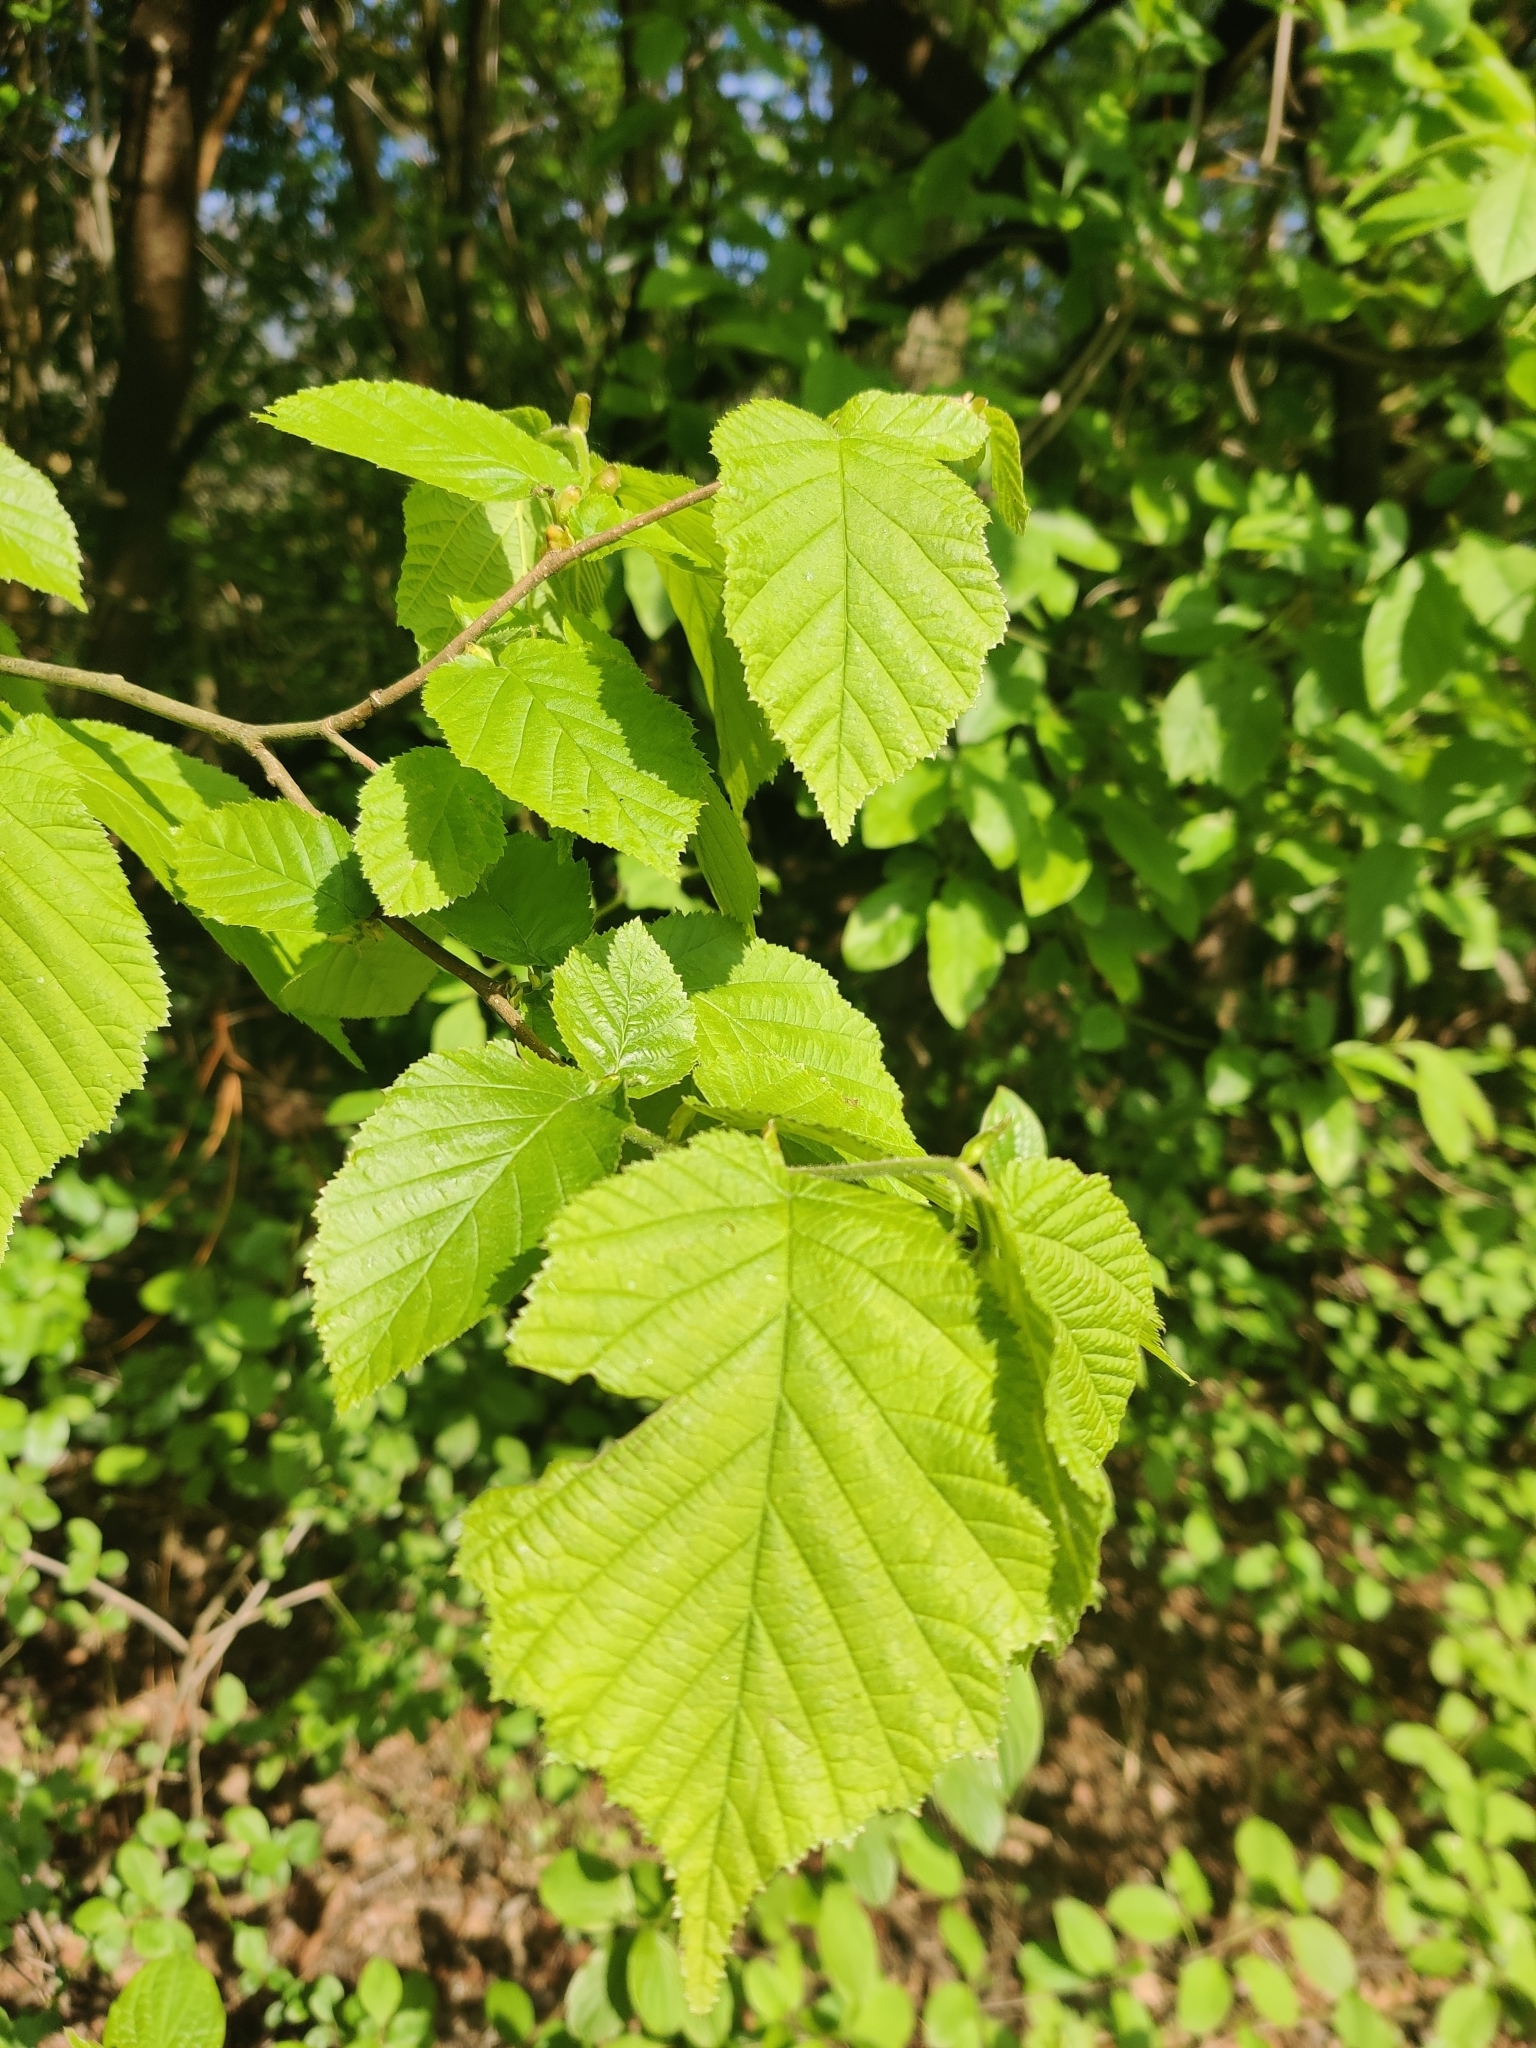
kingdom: Plantae
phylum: Tracheophyta
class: Magnoliopsida
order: Fagales
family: Betulaceae
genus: Corylus
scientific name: Corylus avellana
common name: European hazel
